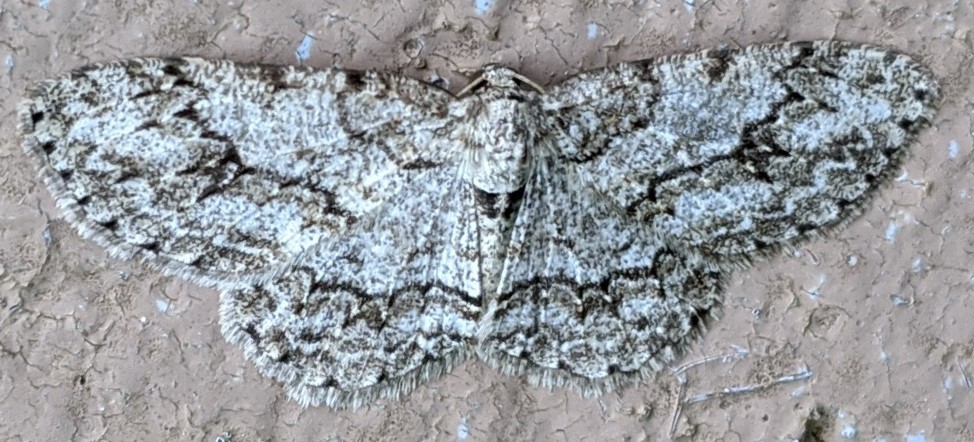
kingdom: Animalia
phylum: Arthropoda
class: Insecta
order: Lepidoptera
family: Geometridae
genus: Ectropis
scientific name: Ectropis crepuscularia
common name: Engrailed
